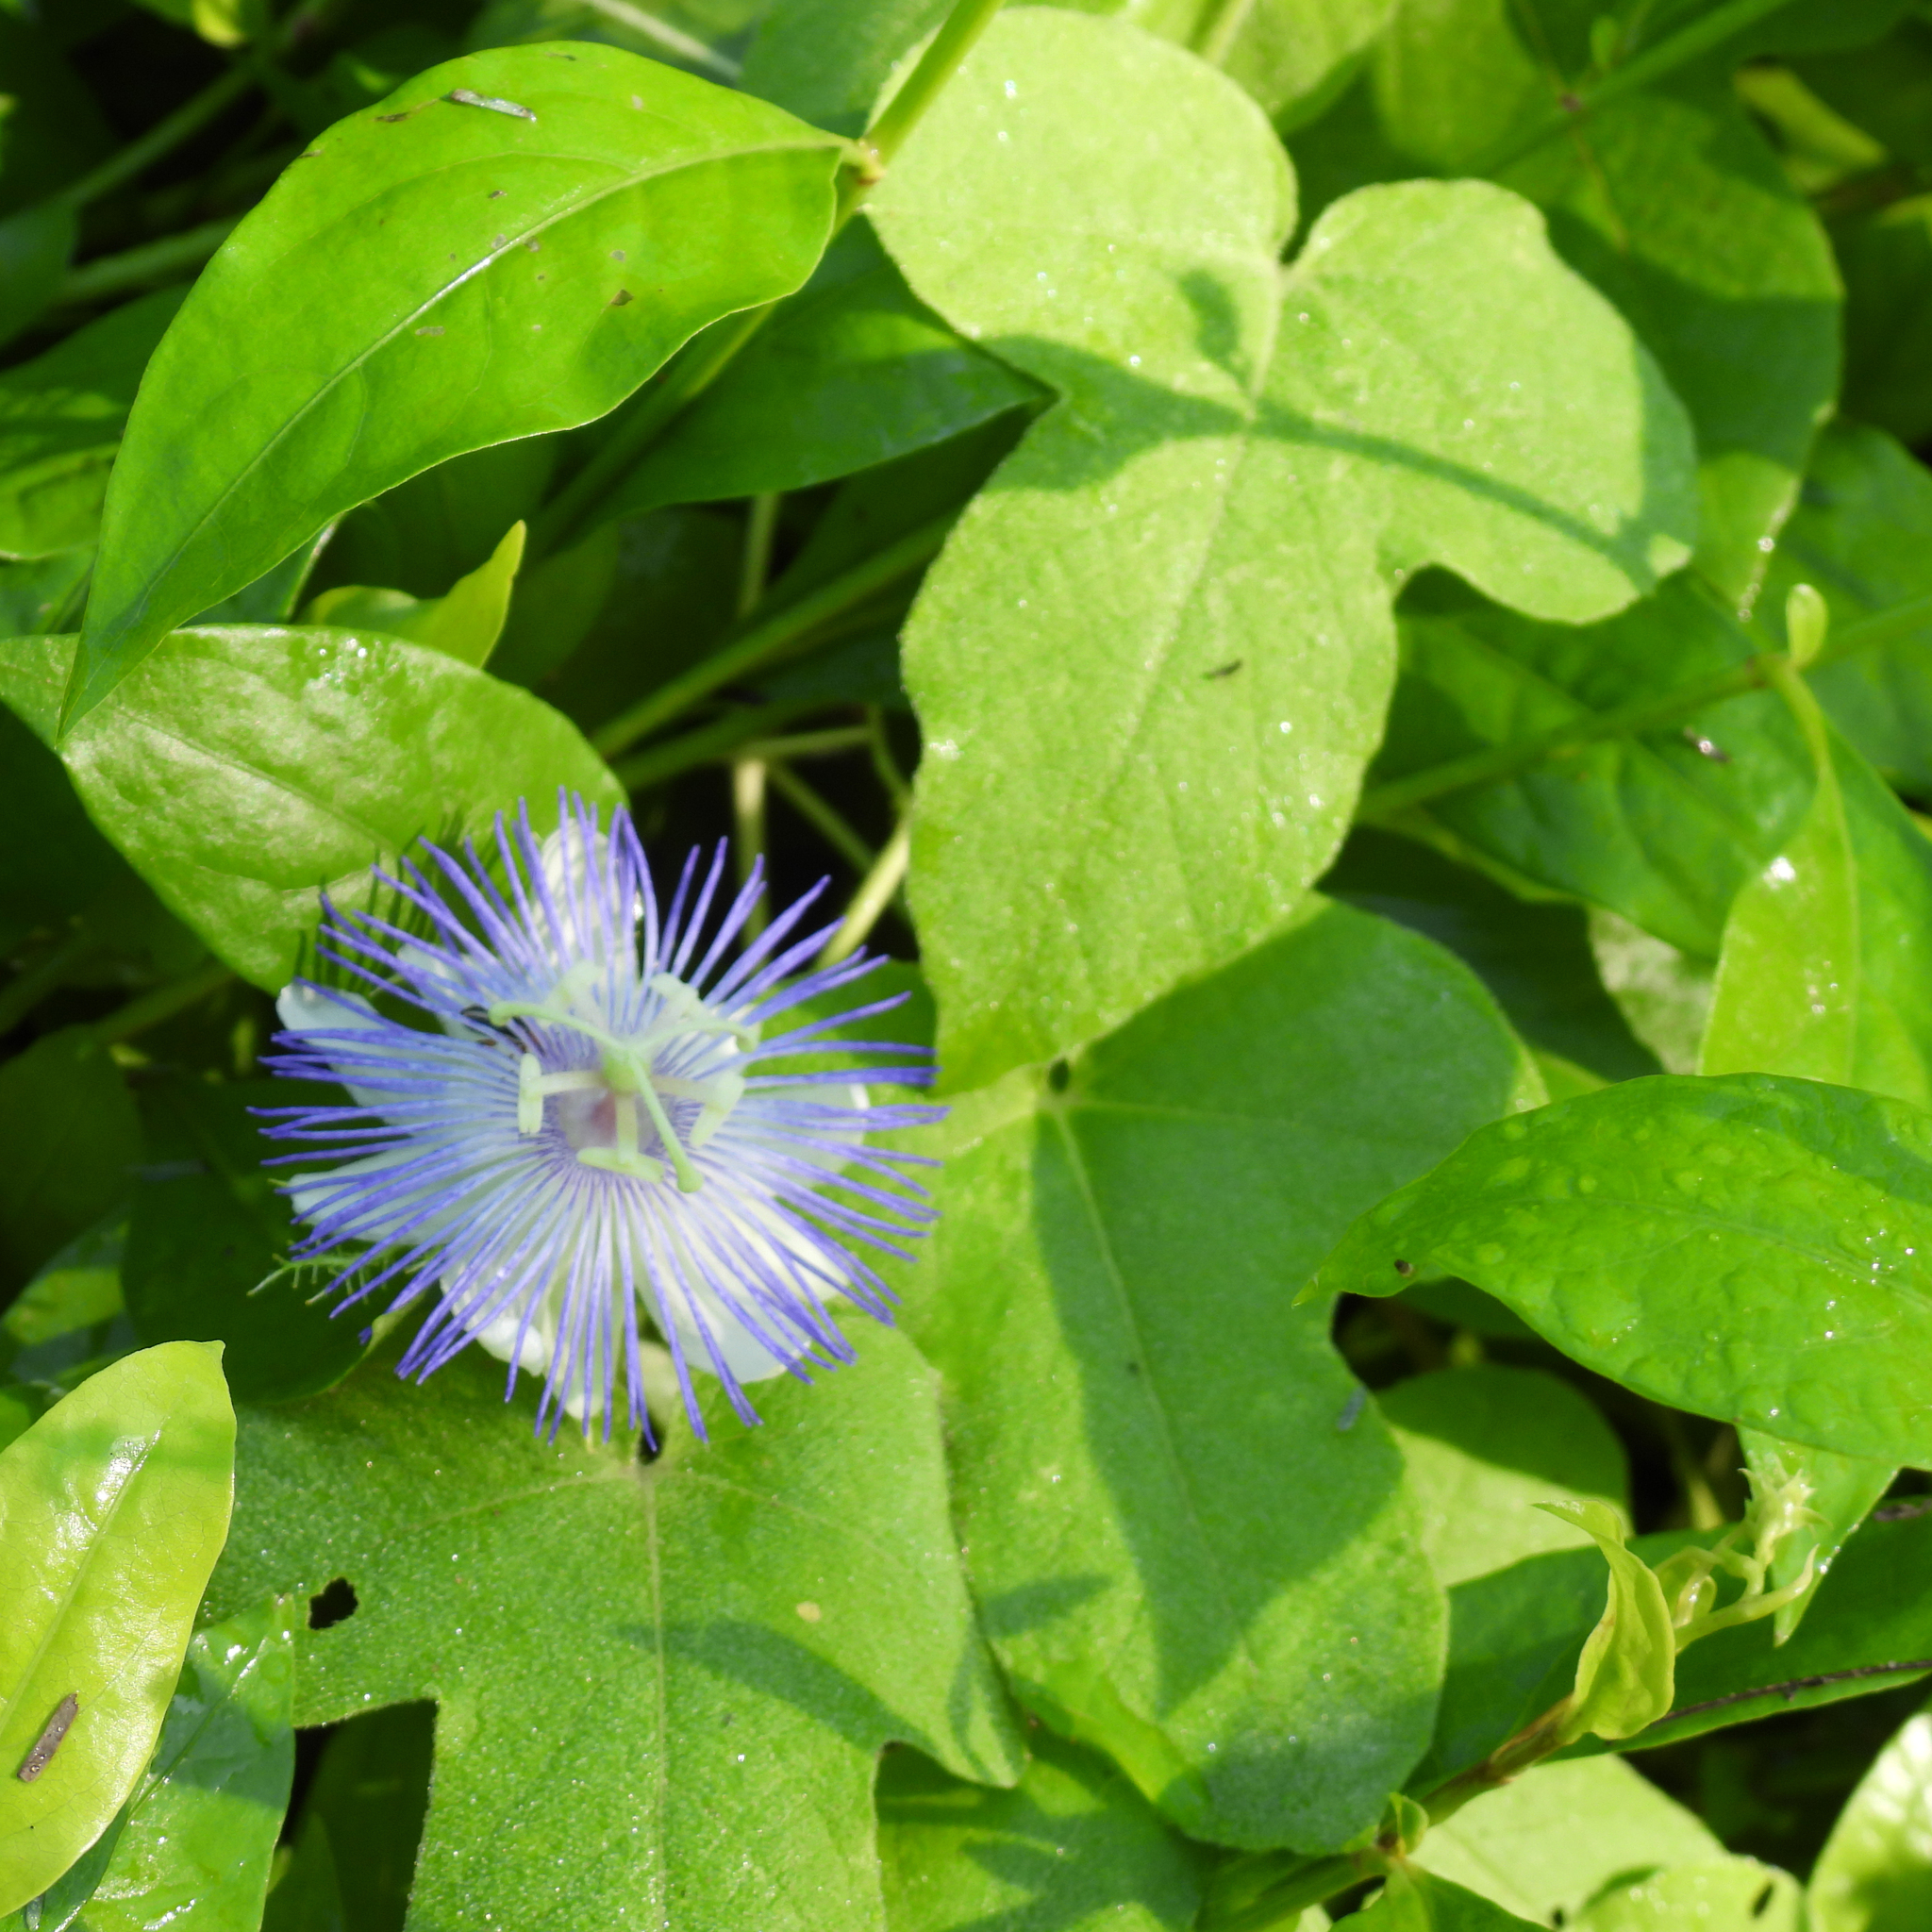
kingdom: Plantae
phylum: Tracheophyta
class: Magnoliopsida
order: Malpighiales
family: Passifloraceae
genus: Passiflora
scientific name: Passiflora foetida
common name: Fetid passionflower
